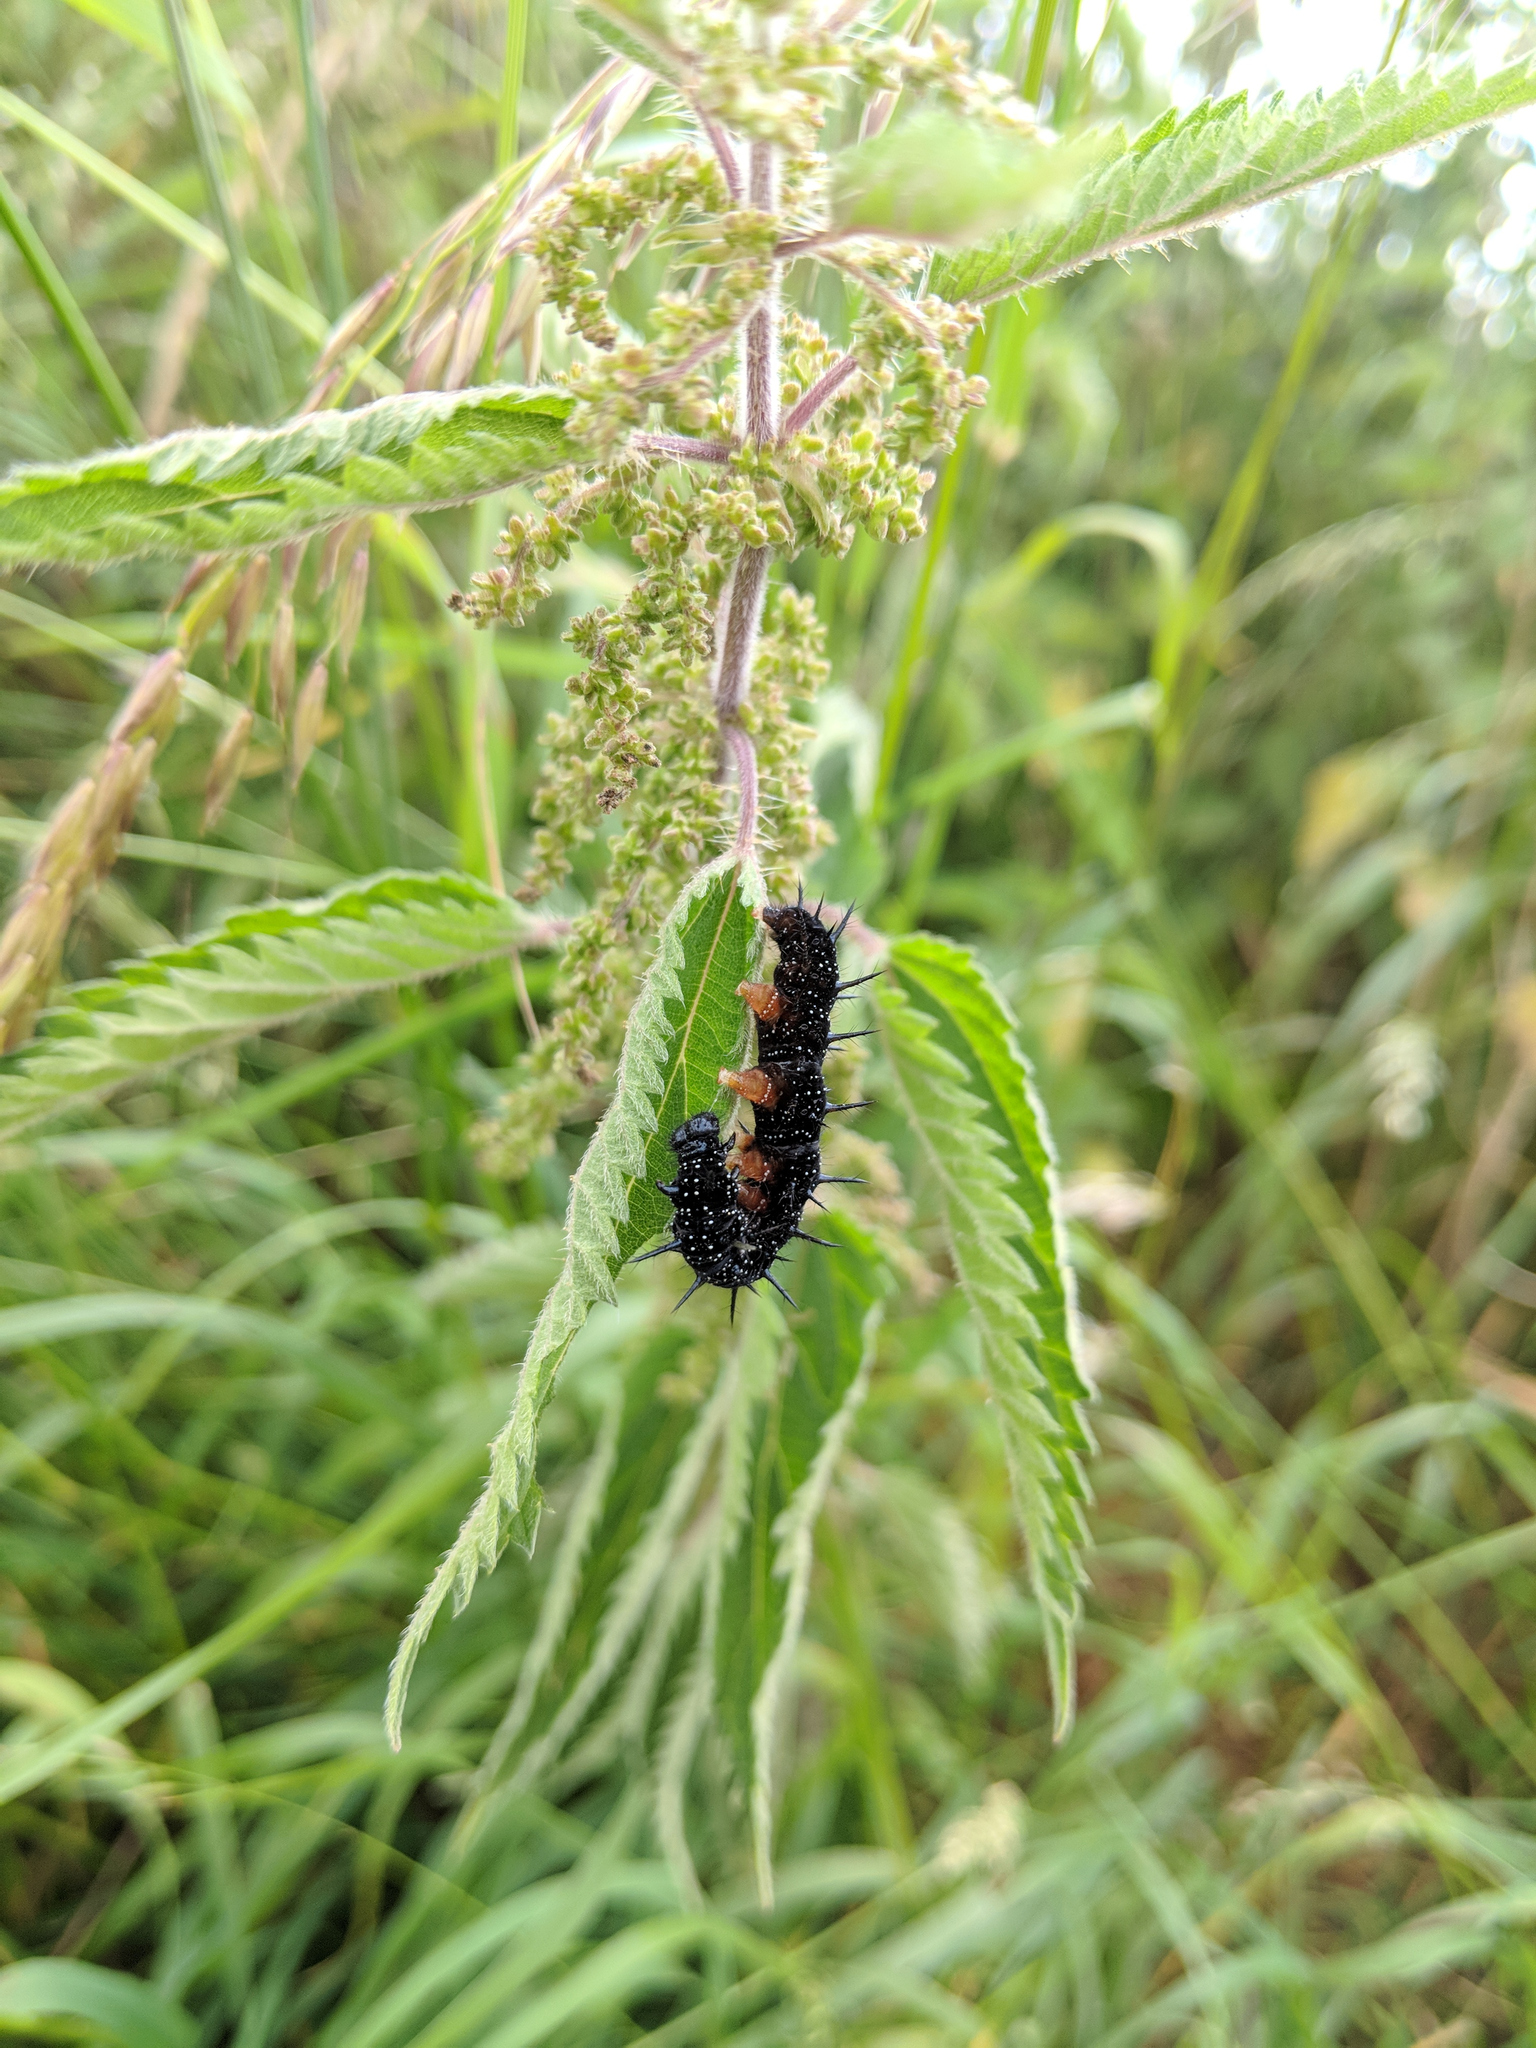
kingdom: Animalia
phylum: Arthropoda
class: Insecta
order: Lepidoptera
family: Nymphalidae
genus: Aglais
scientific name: Aglais io
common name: Peacock
